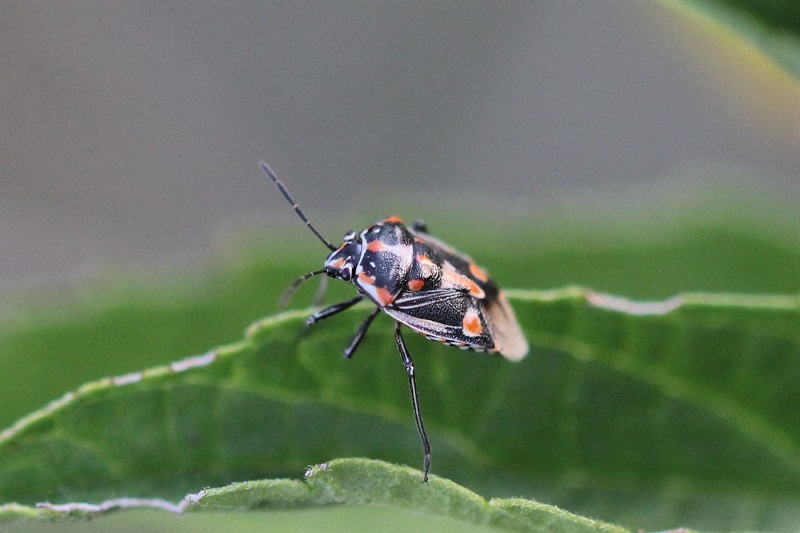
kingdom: Animalia
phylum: Arthropoda
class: Insecta
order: Hemiptera
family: Pentatomidae
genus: Bagrada
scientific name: Bagrada hilaris
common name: Bagrada bug
